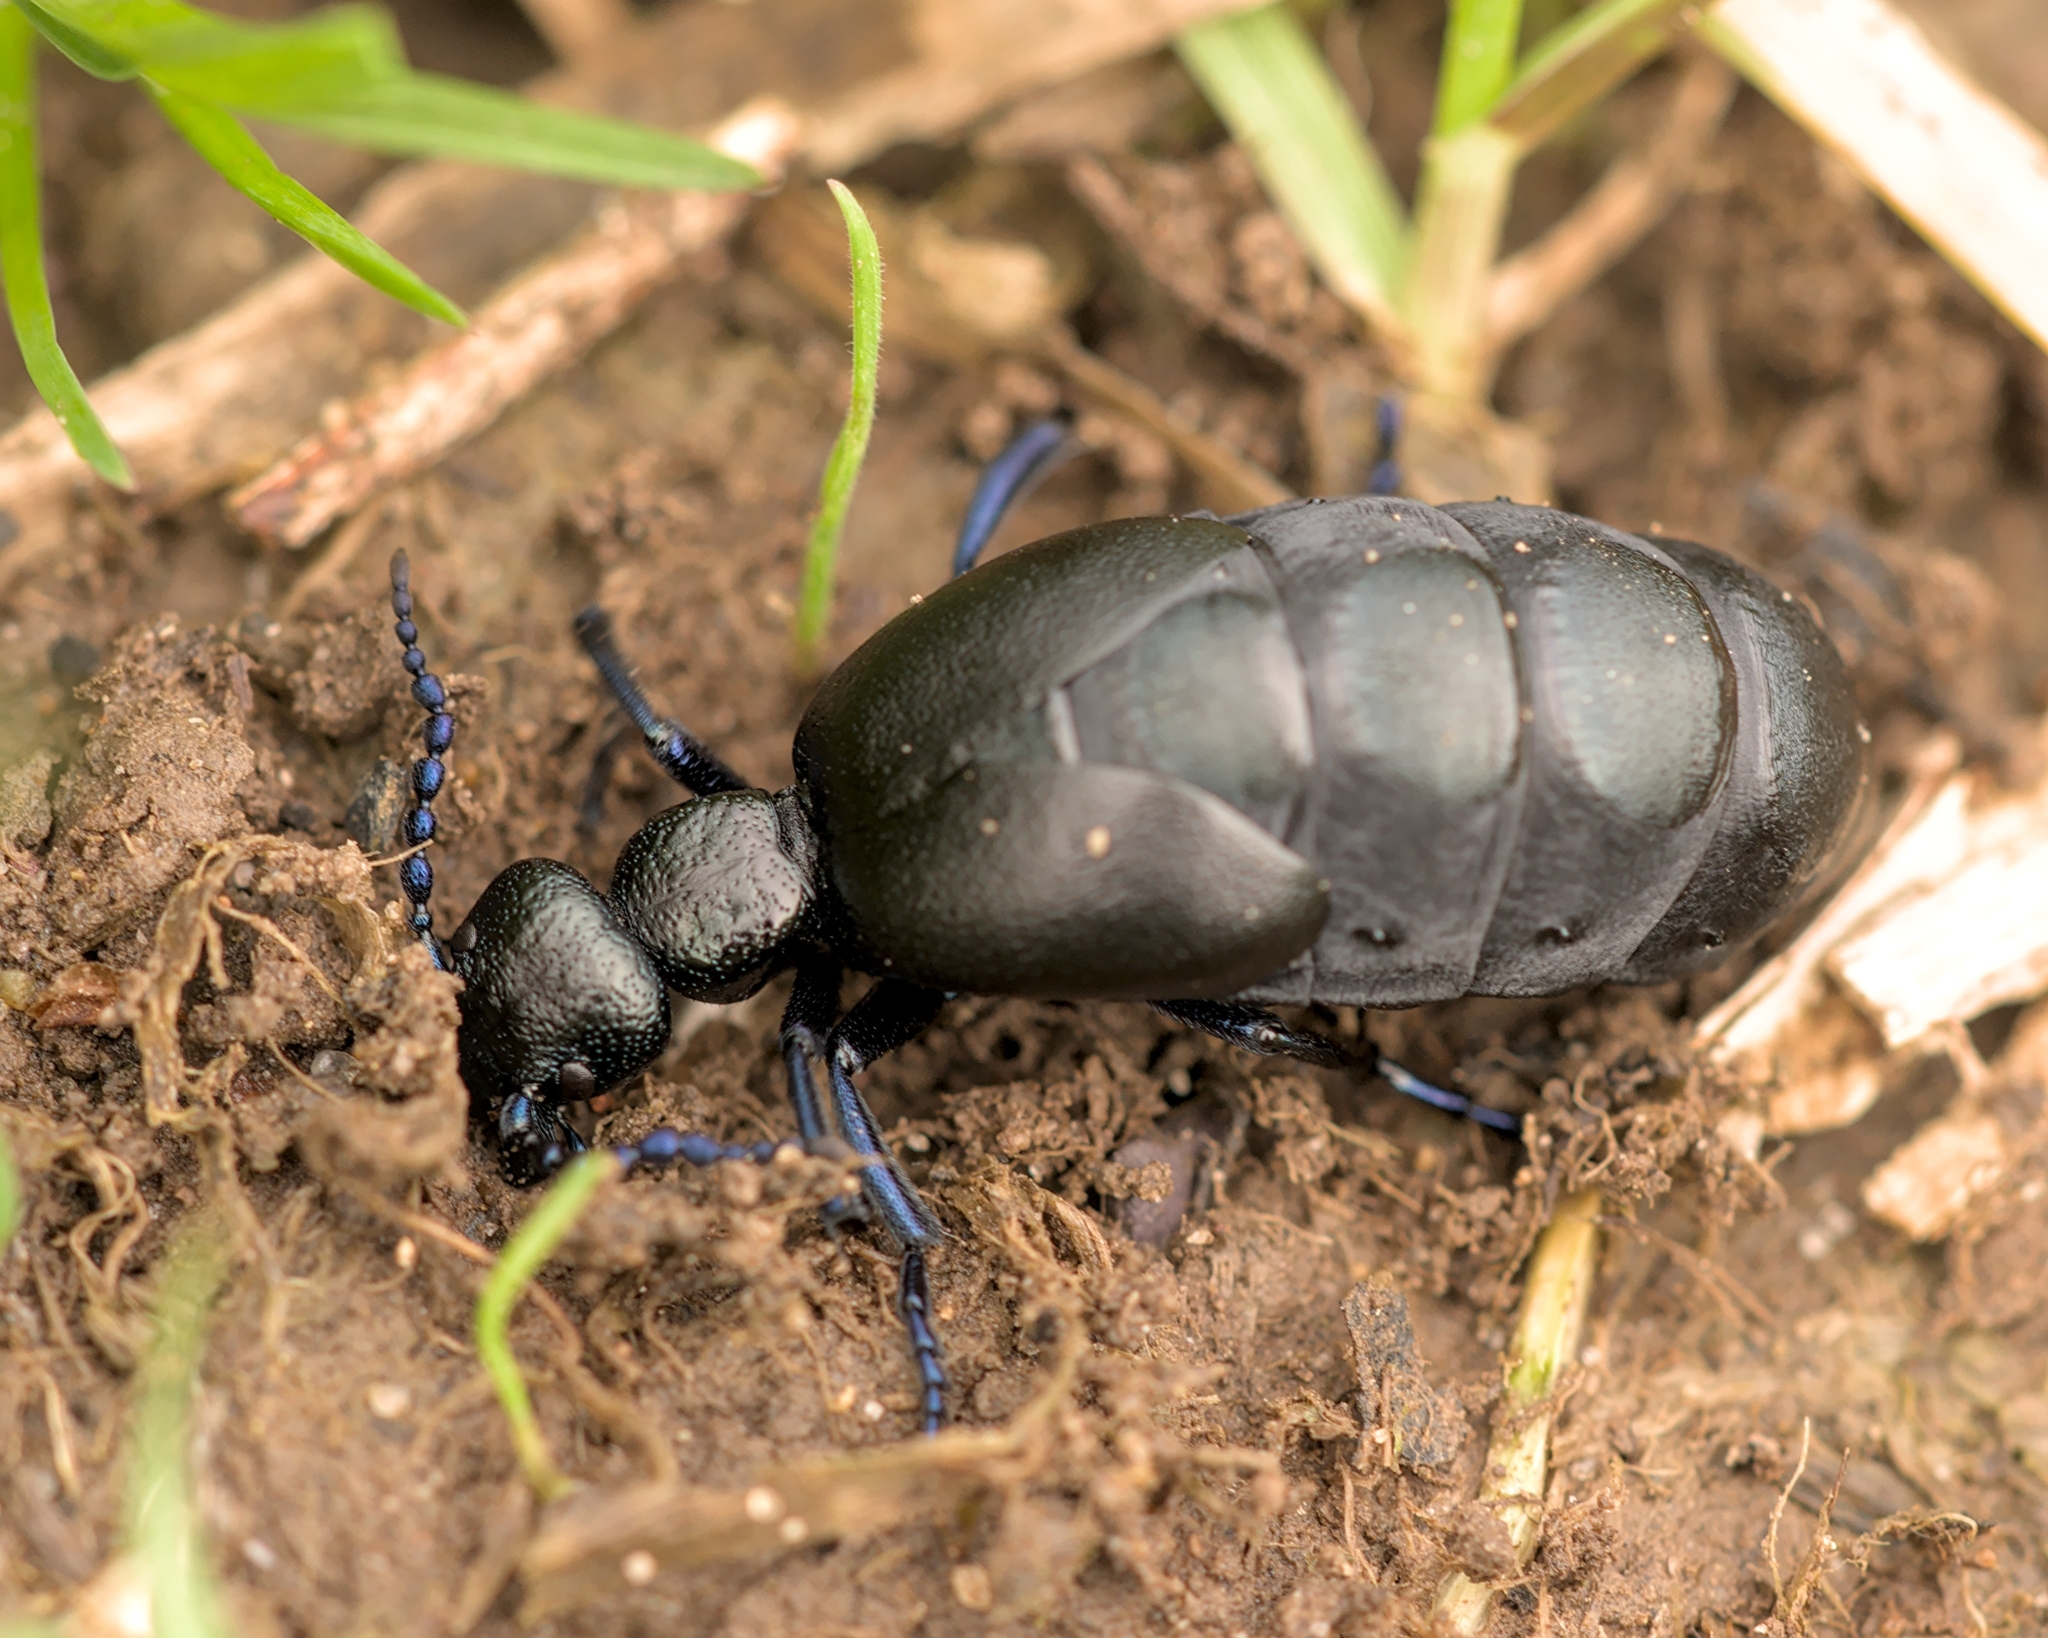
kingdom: Animalia
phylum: Arthropoda
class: Insecta
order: Coleoptera
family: Meloidae
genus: Meloe
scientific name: Meloe proscarabaeus
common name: Black oil-beetle
